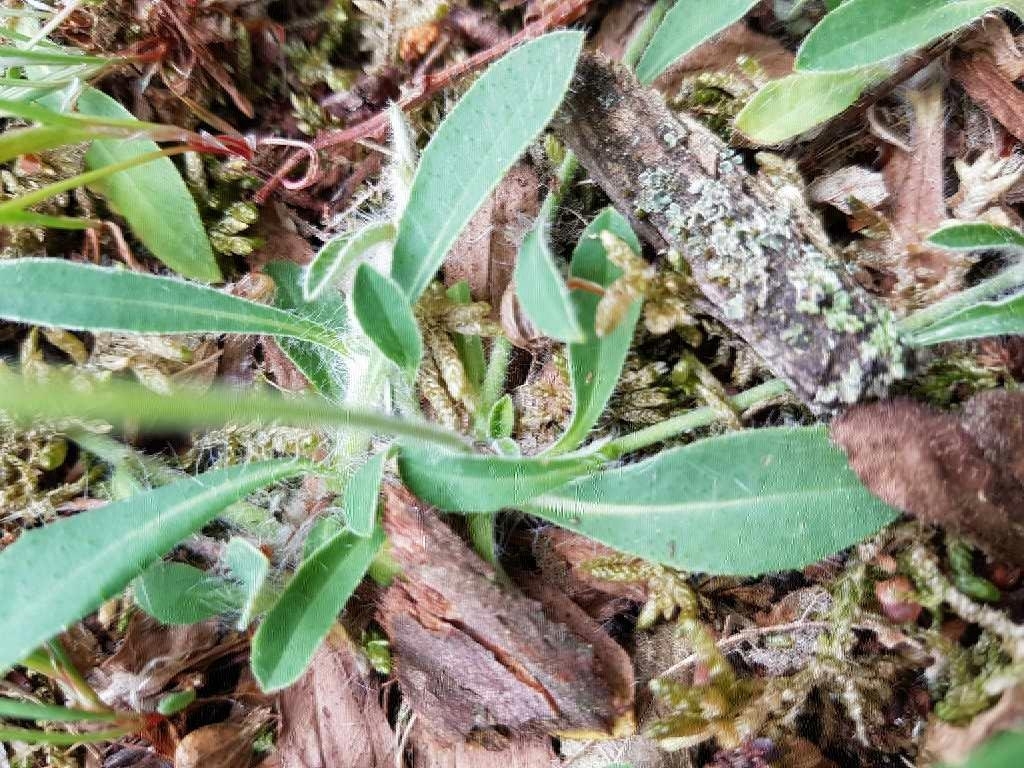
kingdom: Plantae
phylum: Tracheophyta
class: Magnoliopsida
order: Asterales
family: Asteraceae
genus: Pilosella
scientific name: Pilosella officinarum
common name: Mouse-ear hawkweed
